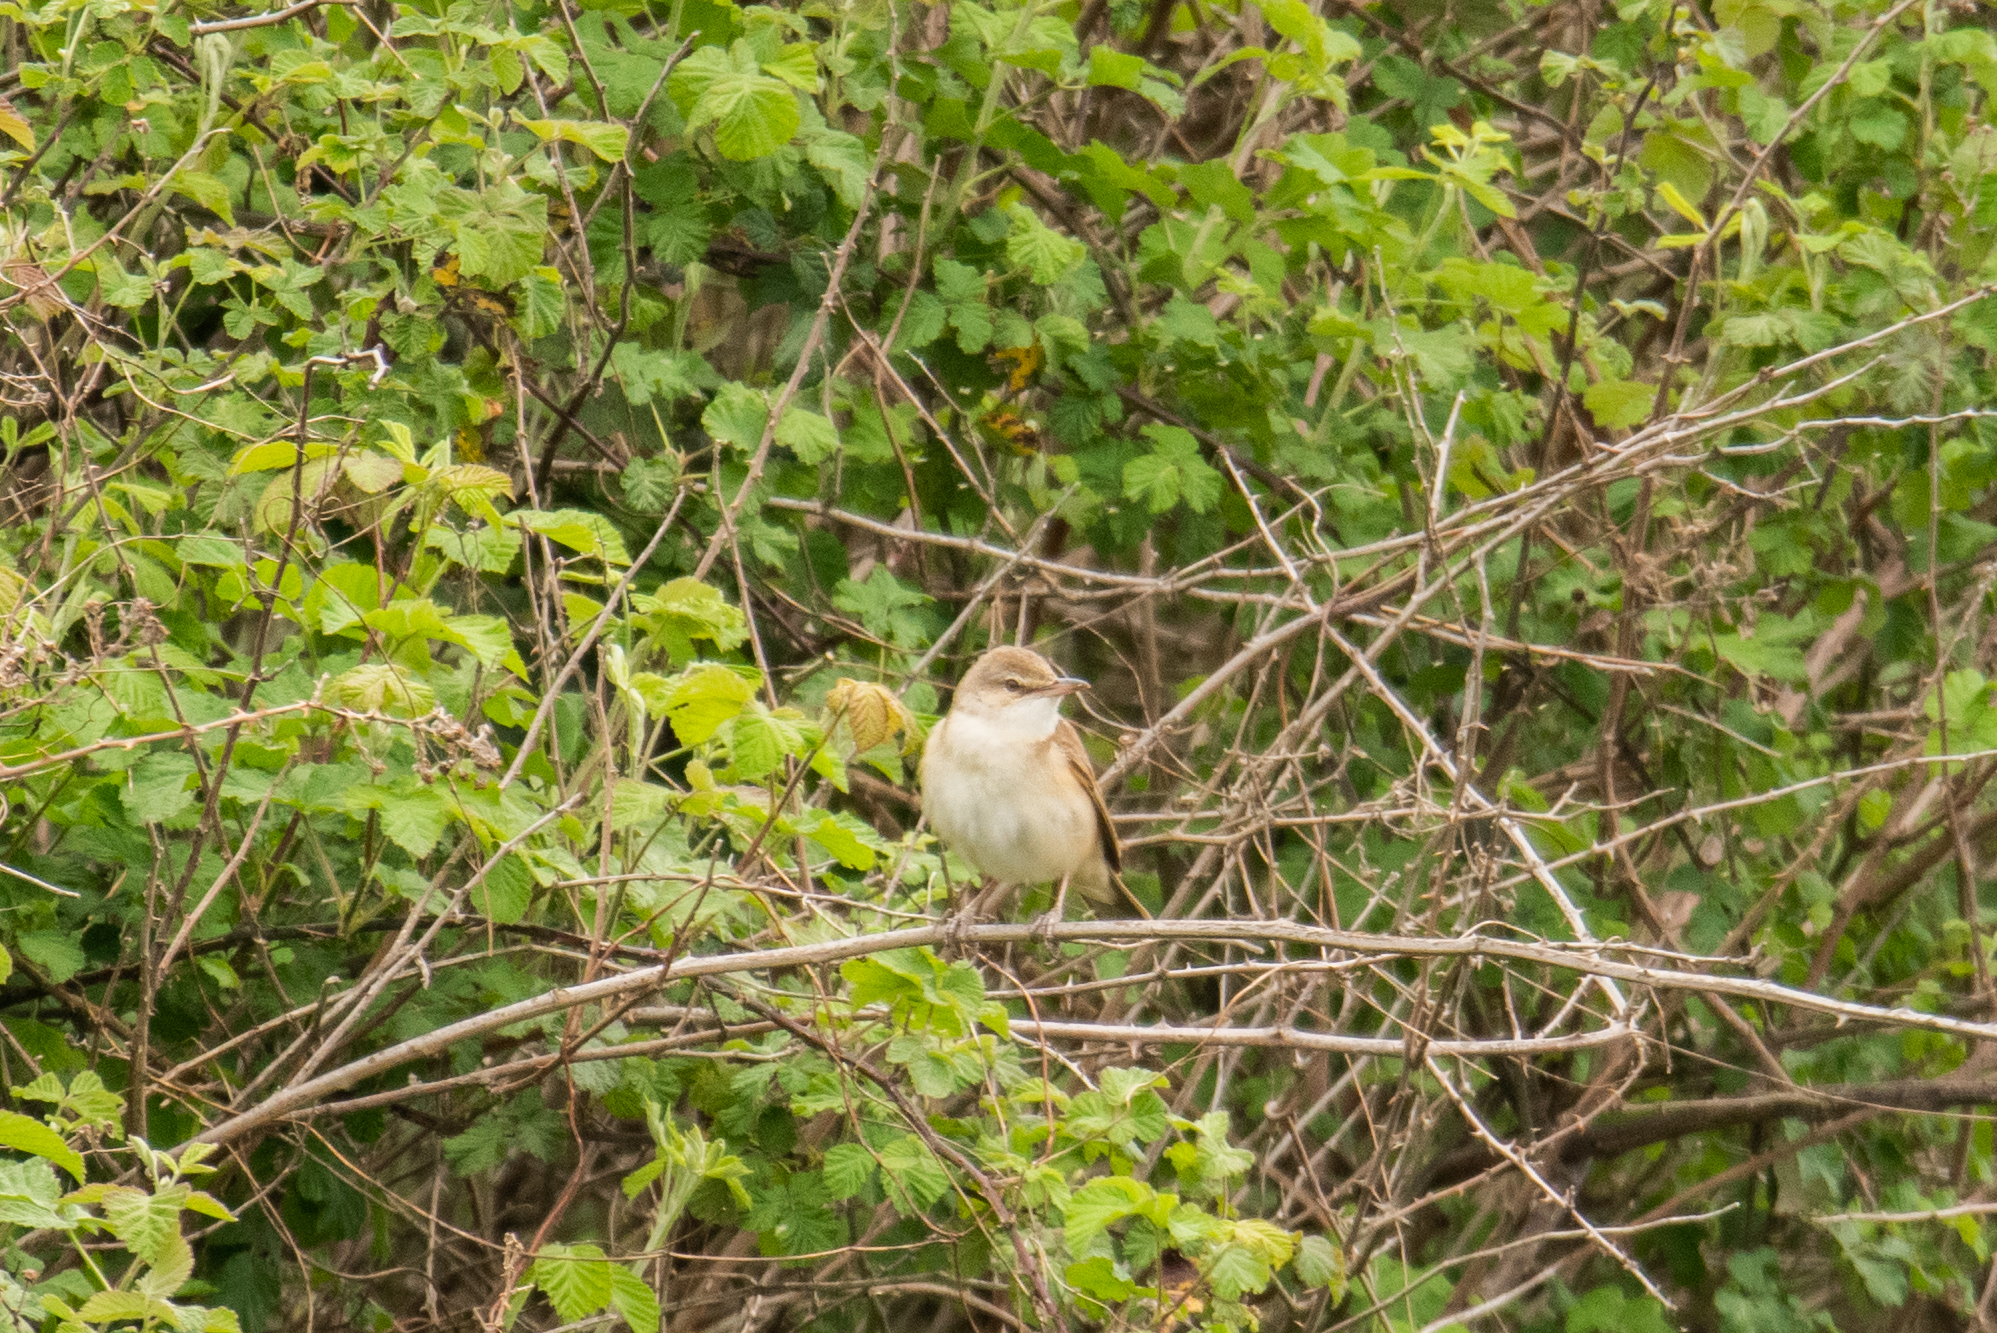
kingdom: Animalia
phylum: Chordata
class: Aves
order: Passeriformes
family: Acrocephalidae
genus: Acrocephalus
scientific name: Acrocephalus arundinaceus
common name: Great reed warbler
